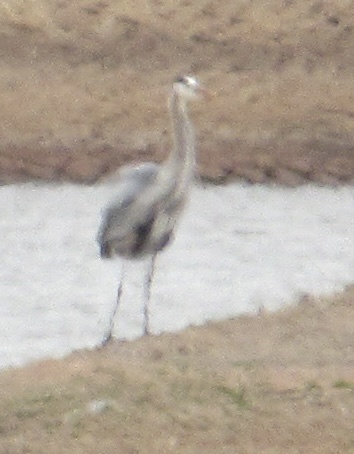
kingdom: Animalia
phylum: Chordata
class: Aves
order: Pelecaniformes
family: Ardeidae
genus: Ardea
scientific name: Ardea herodias
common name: Great blue heron
